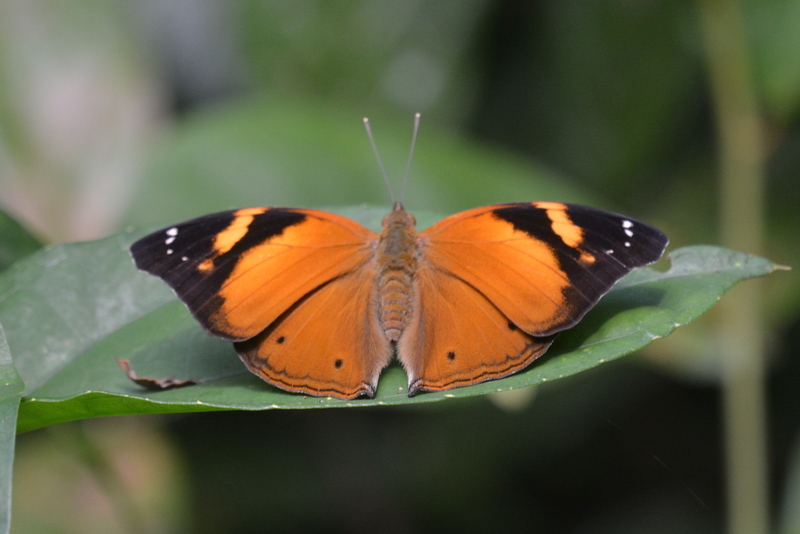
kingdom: Animalia
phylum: Arthropoda
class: Insecta
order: Lepidoptera
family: Nymphalidae
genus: Doleschallia
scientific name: Doleschallia bisaltide
